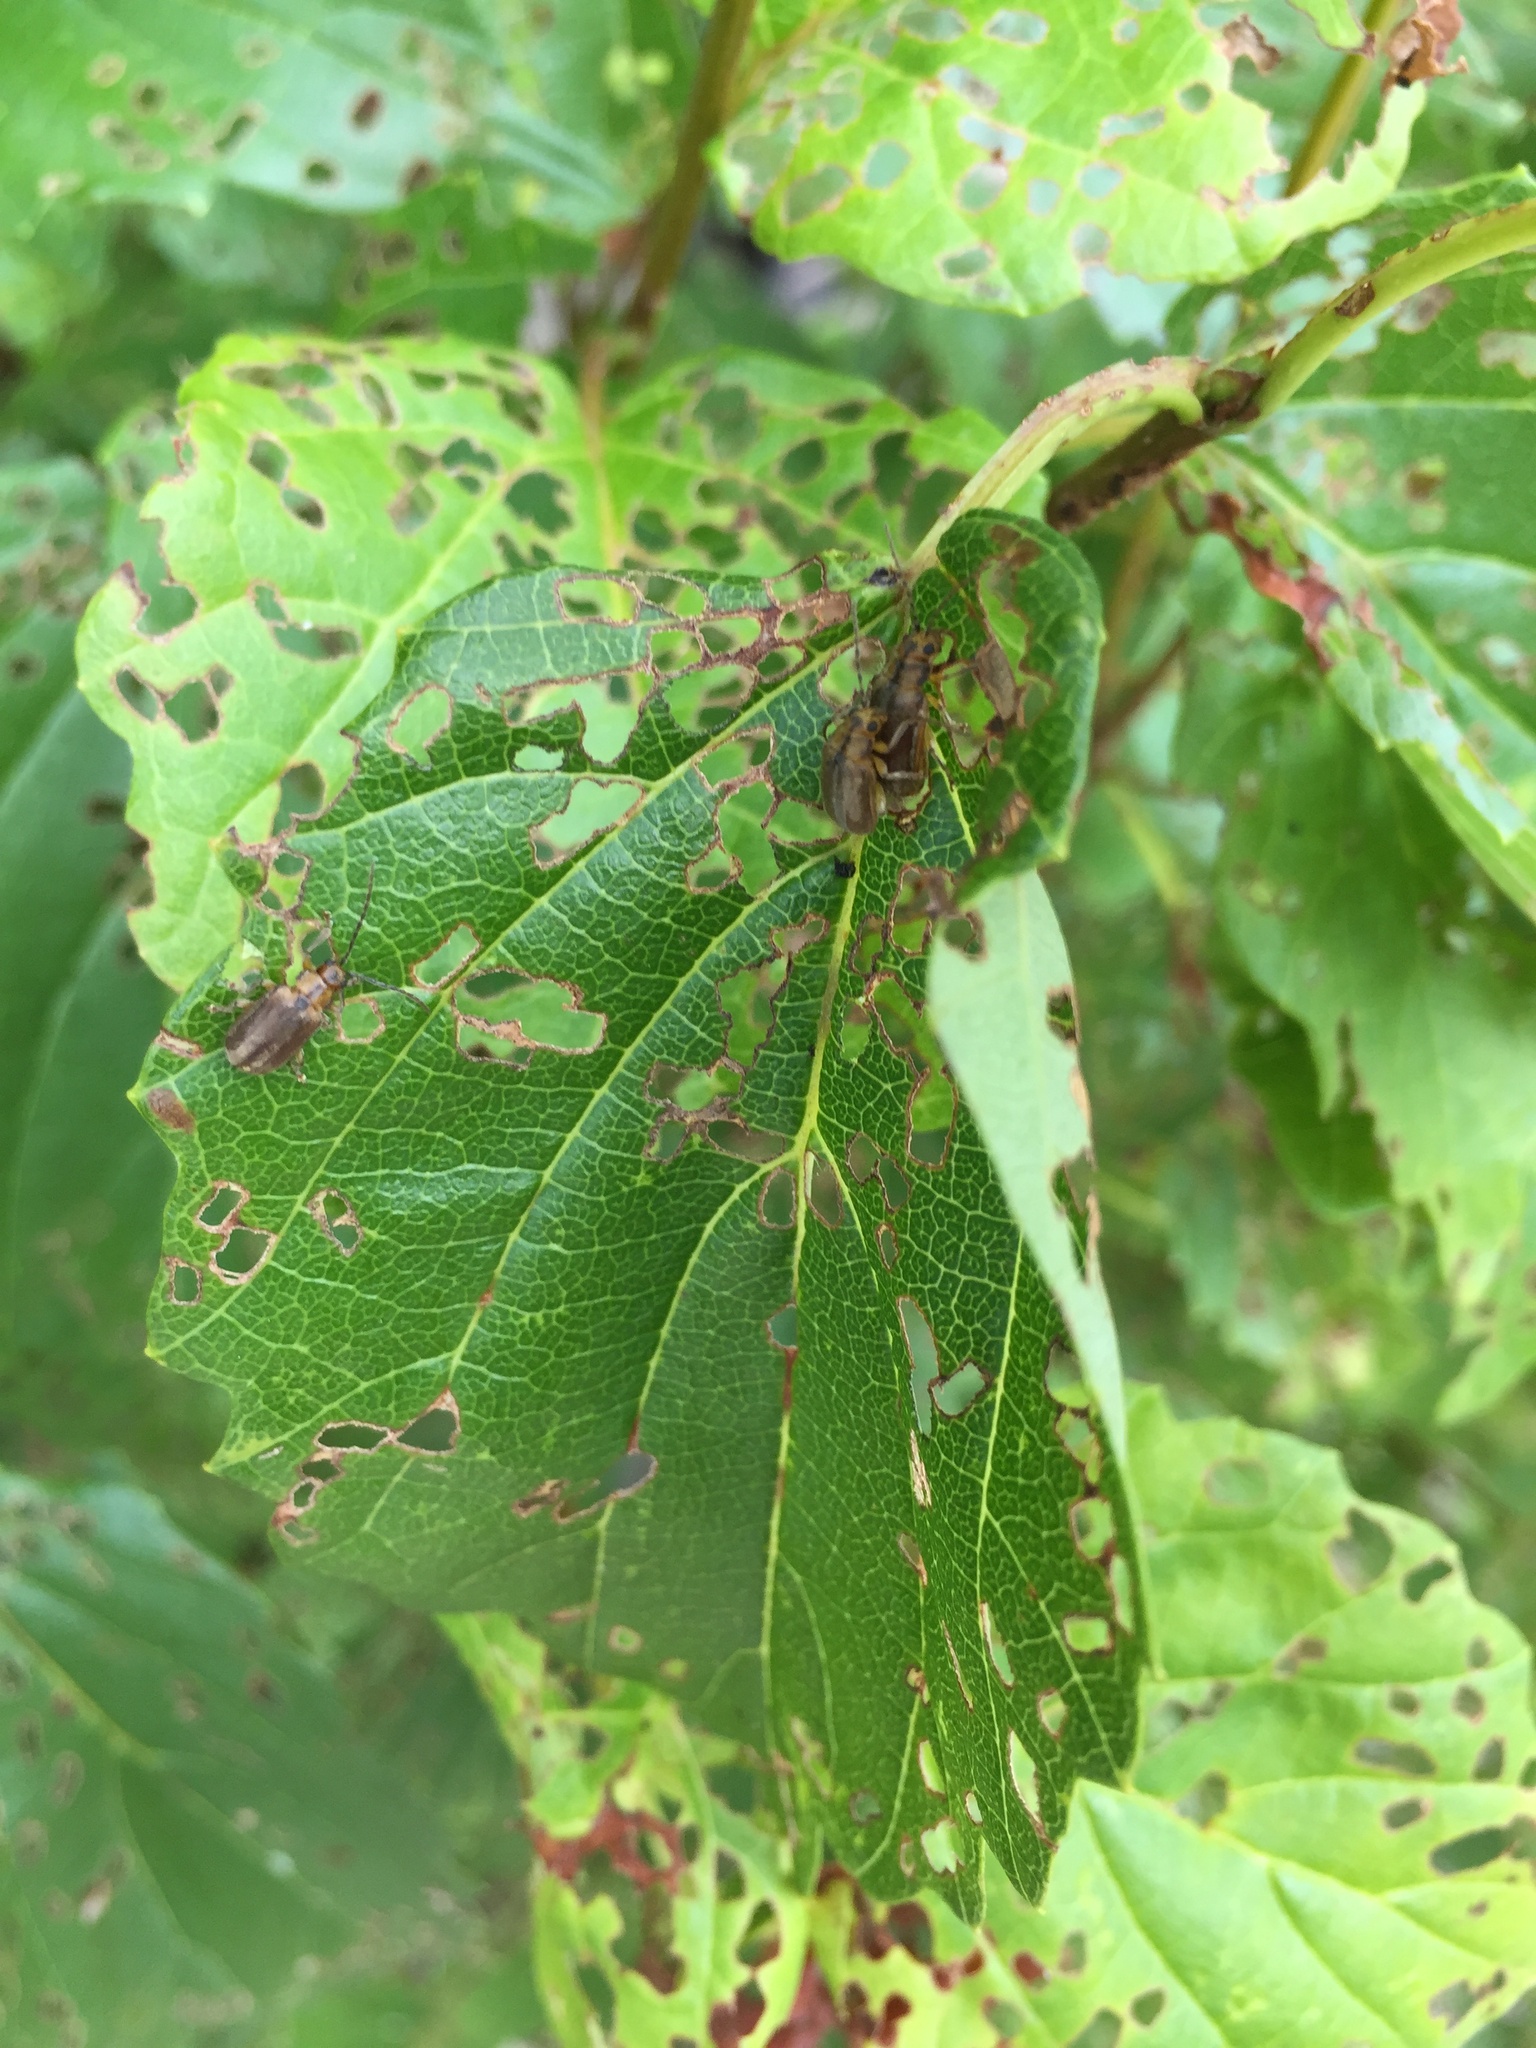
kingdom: Animalia
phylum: Arthropoda
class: Insecta
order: Coleoptera
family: Chrysomelidae
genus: Pyrrhalta
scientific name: Pyrrhalta viburni
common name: Guelder-rose leaf beetle
